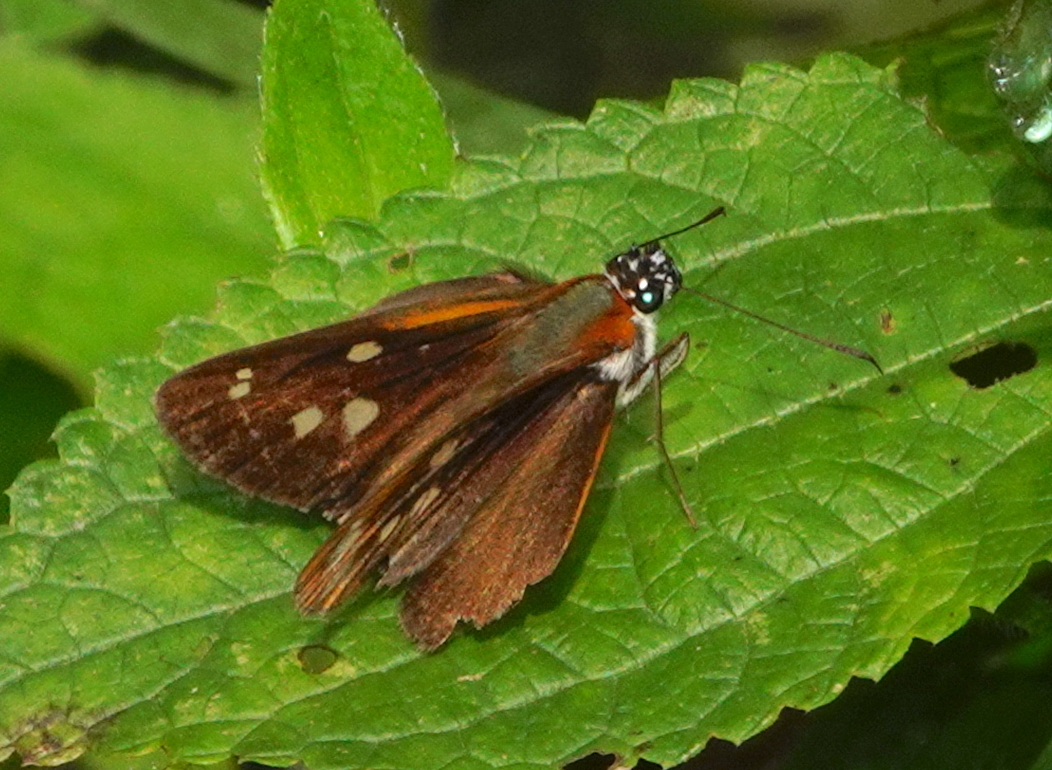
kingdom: Animalia
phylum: Arthropoda
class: Insecta
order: Lepidoptera
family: Hesperiidae
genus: Corra
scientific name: Corra
